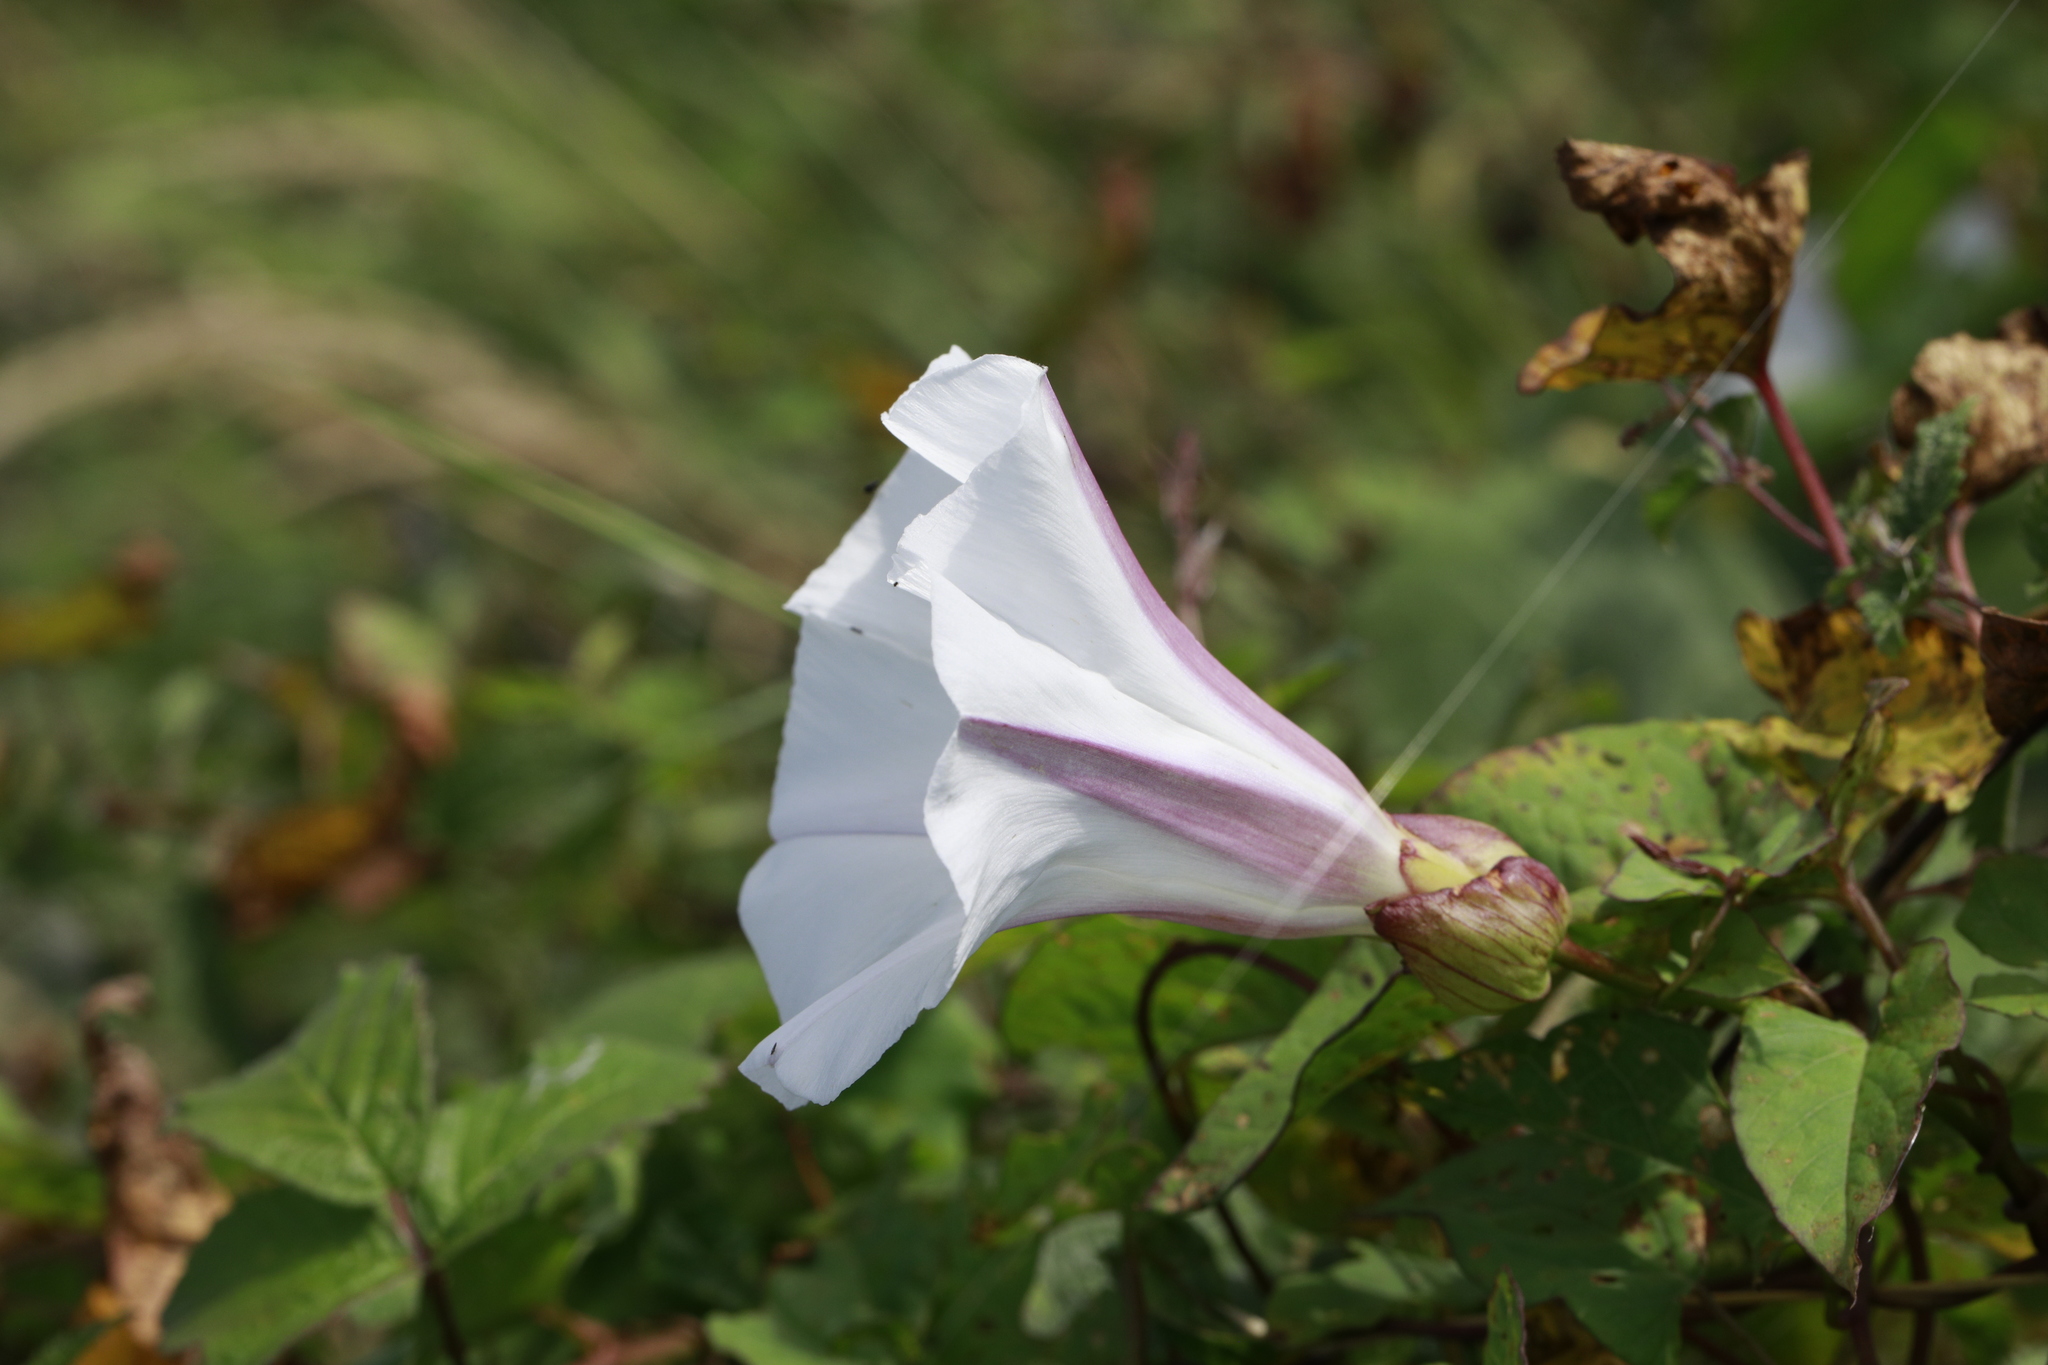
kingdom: Plantae
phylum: Tracheophyta
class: Magnoliopsida
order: Solanales
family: Convolvulaceae
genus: Calystegia
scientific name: Calystegia silvatica
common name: Large bindweed
